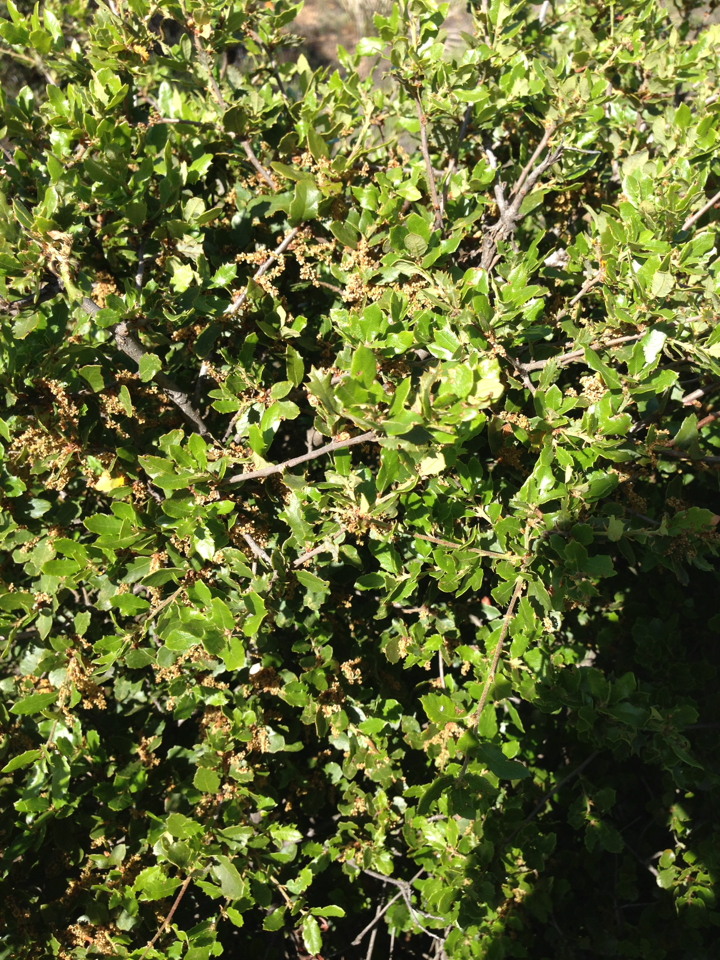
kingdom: Plantae
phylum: Tracheophyta
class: Magnoliopsida
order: Fagales
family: Fagaceae
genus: Quercus
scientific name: Quercus berberidifolia
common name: California scrub oak
